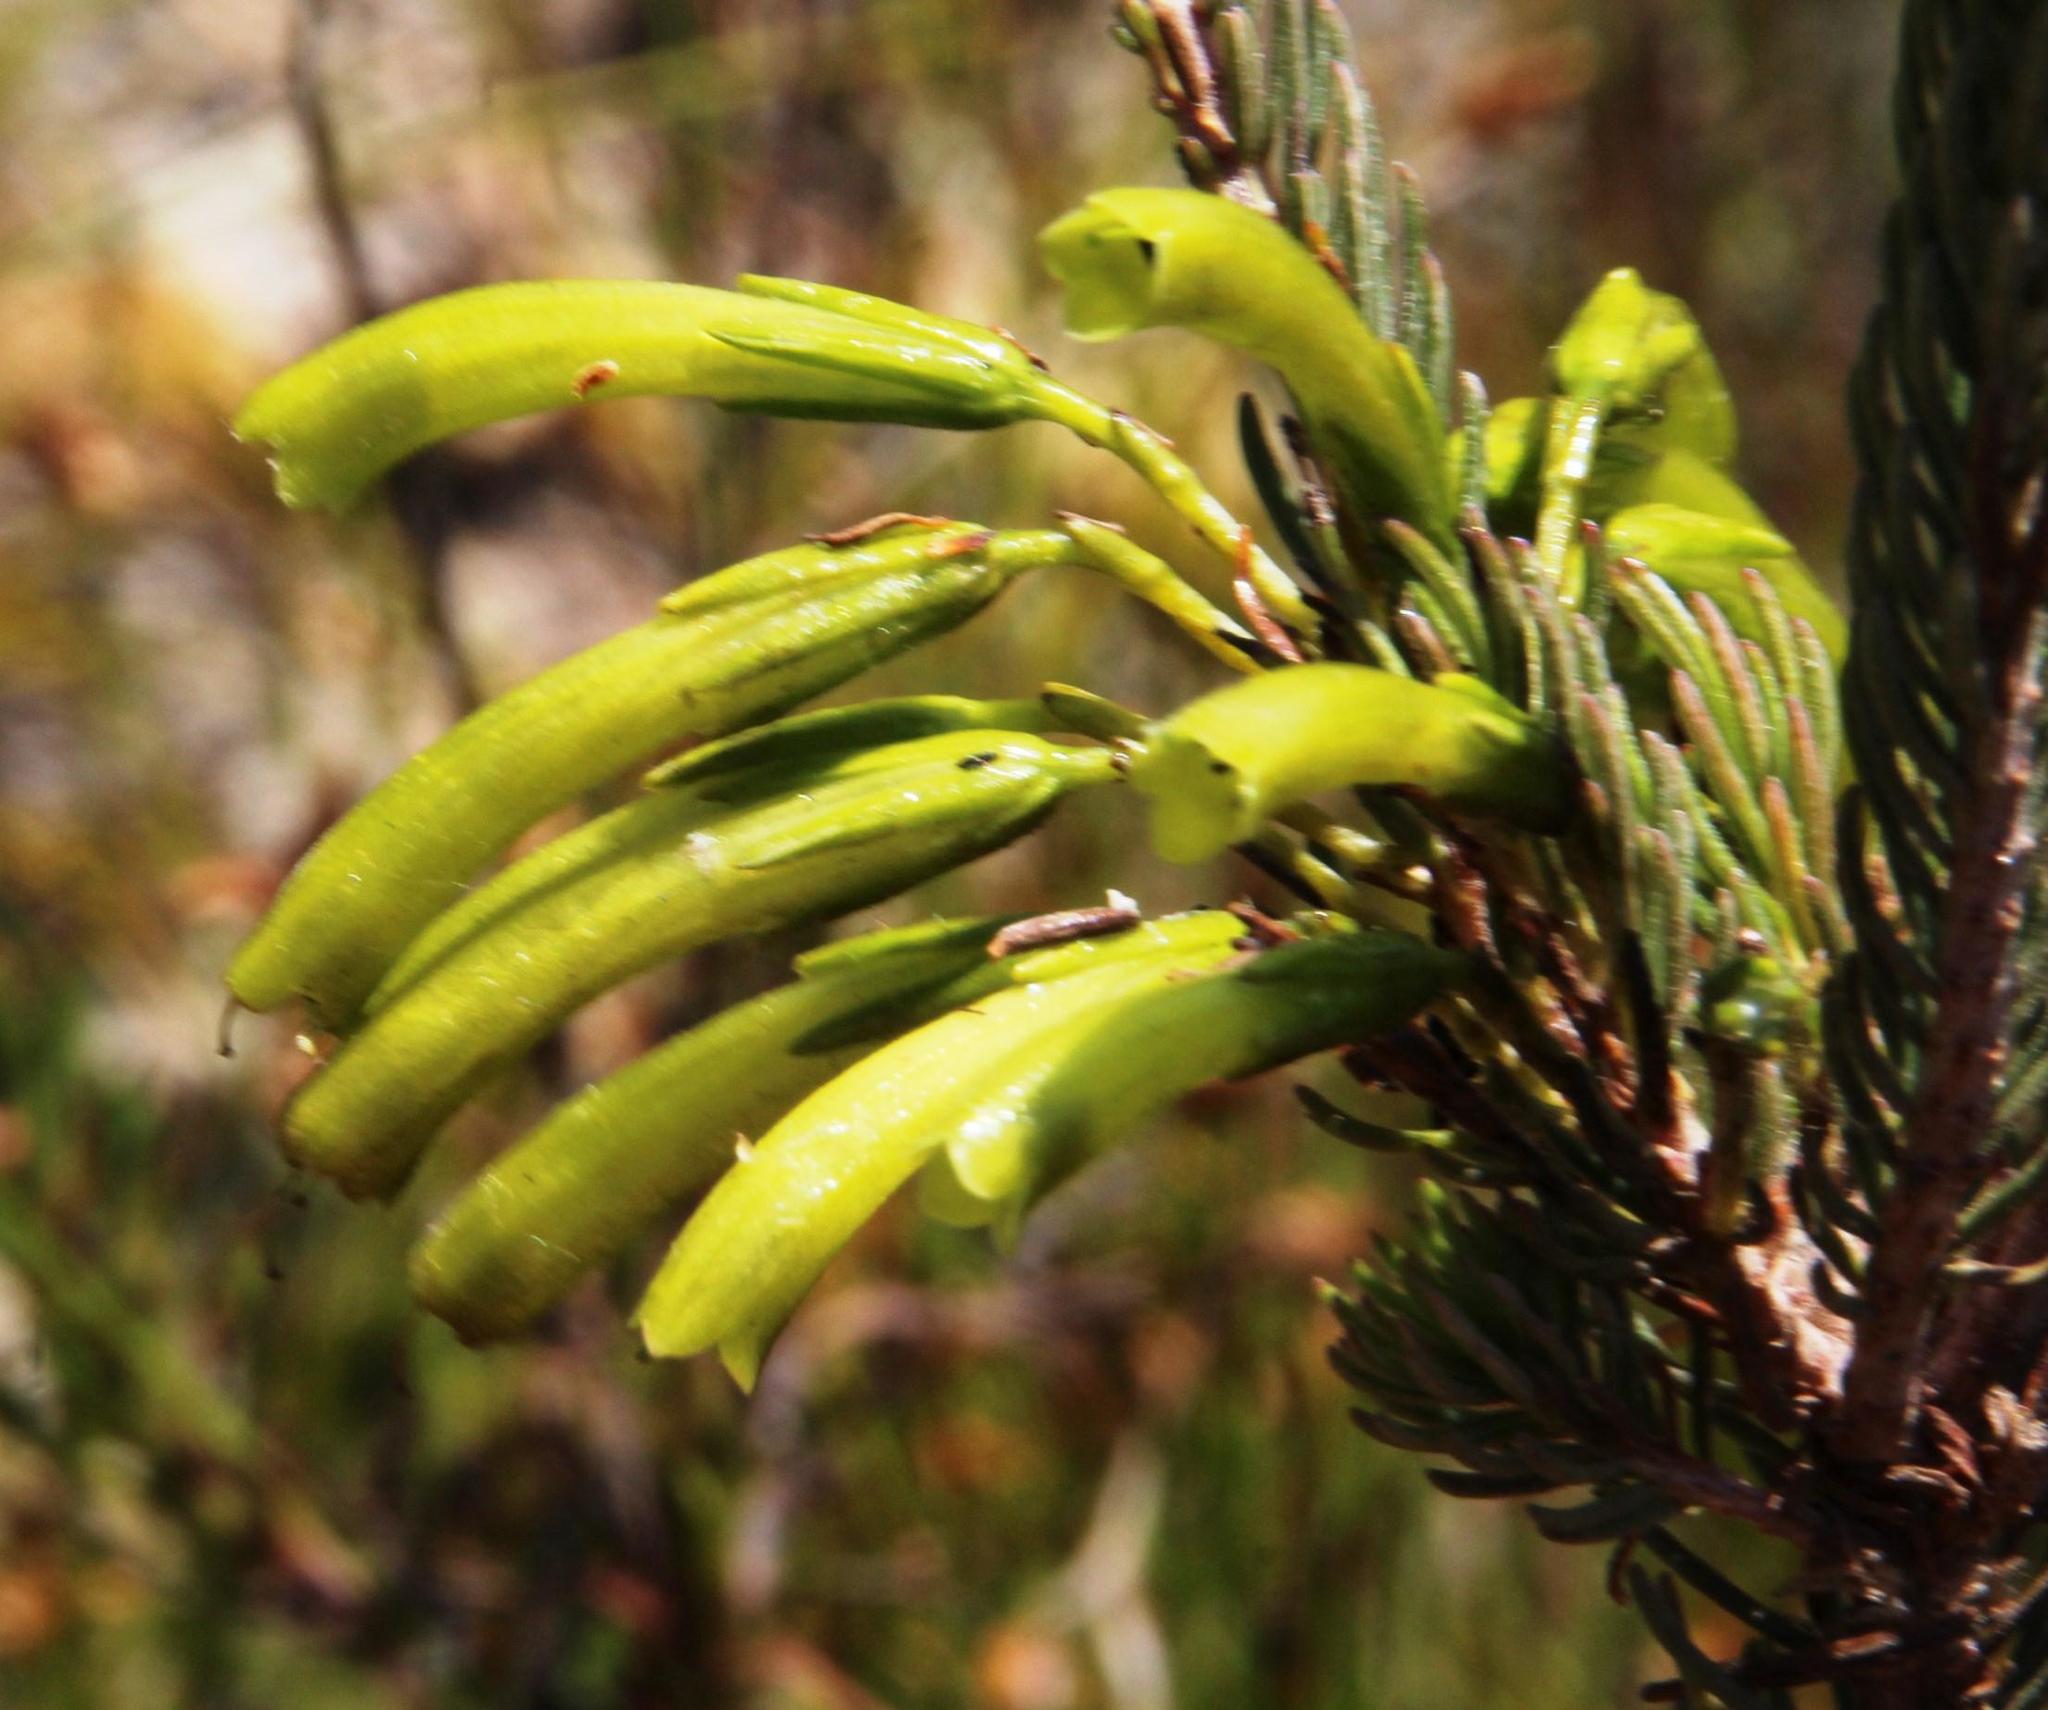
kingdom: Plantae
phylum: Tracheophyta
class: Magnoliopsida
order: Ericales
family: Ericaceae
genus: Erica
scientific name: Erica thomae
